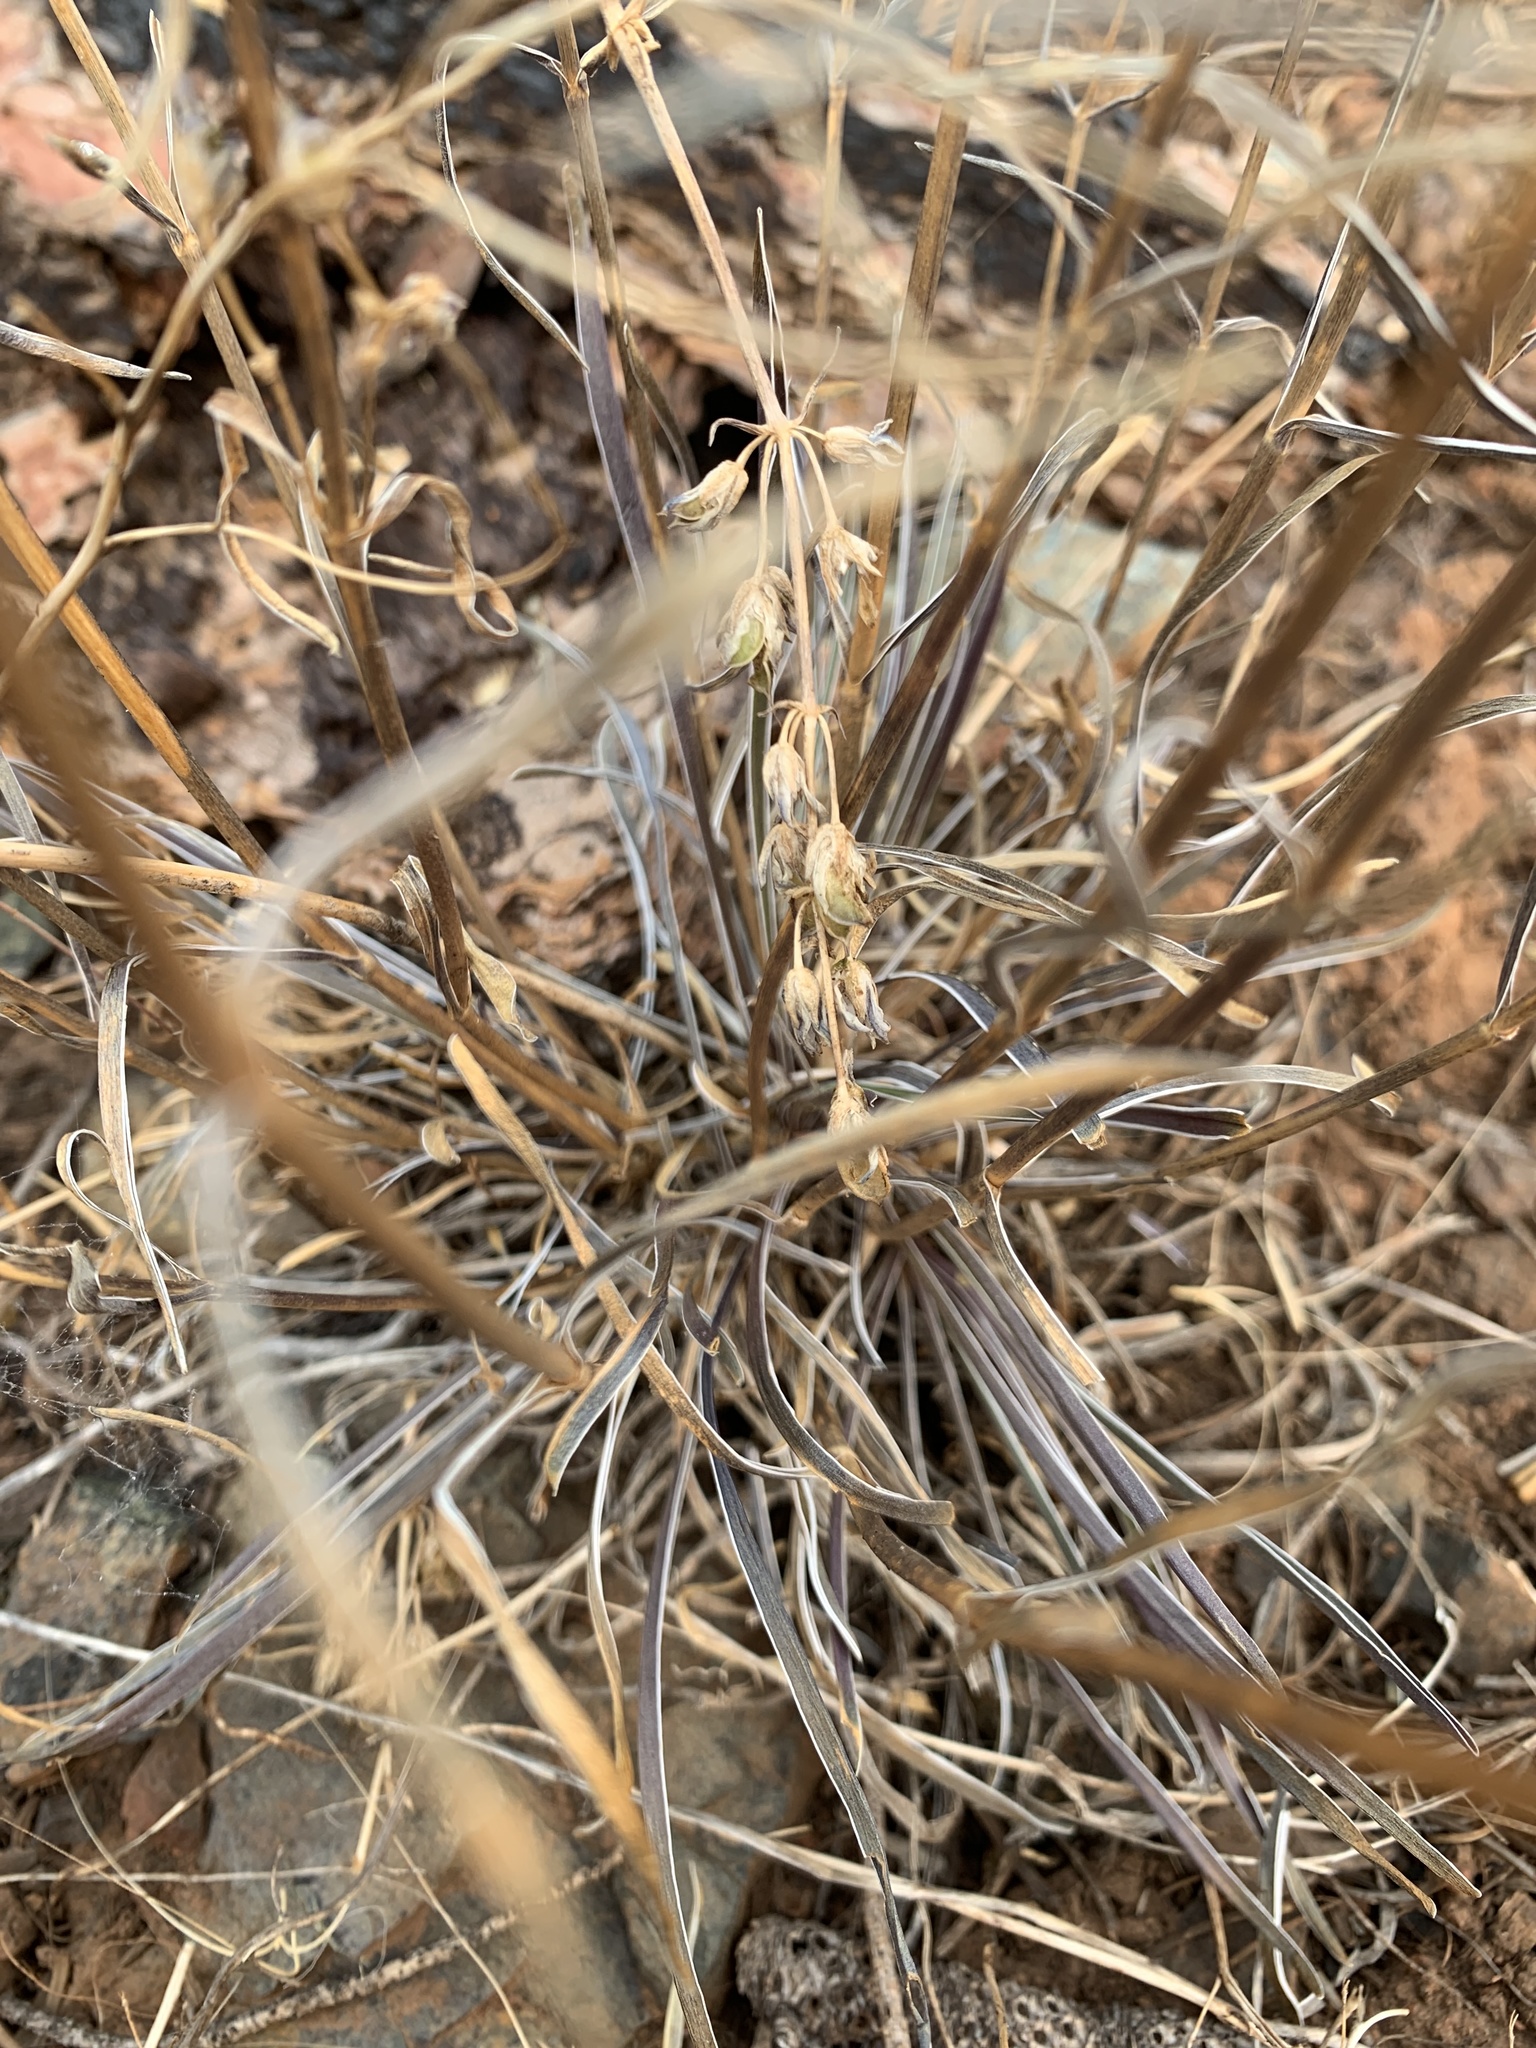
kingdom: Plantae
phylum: Tracheophyta
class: Magnoliopsida
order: Gentianales
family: Gentianaceae
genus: Frasera
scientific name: Frasera albicaulis
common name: Cusick's frasera
